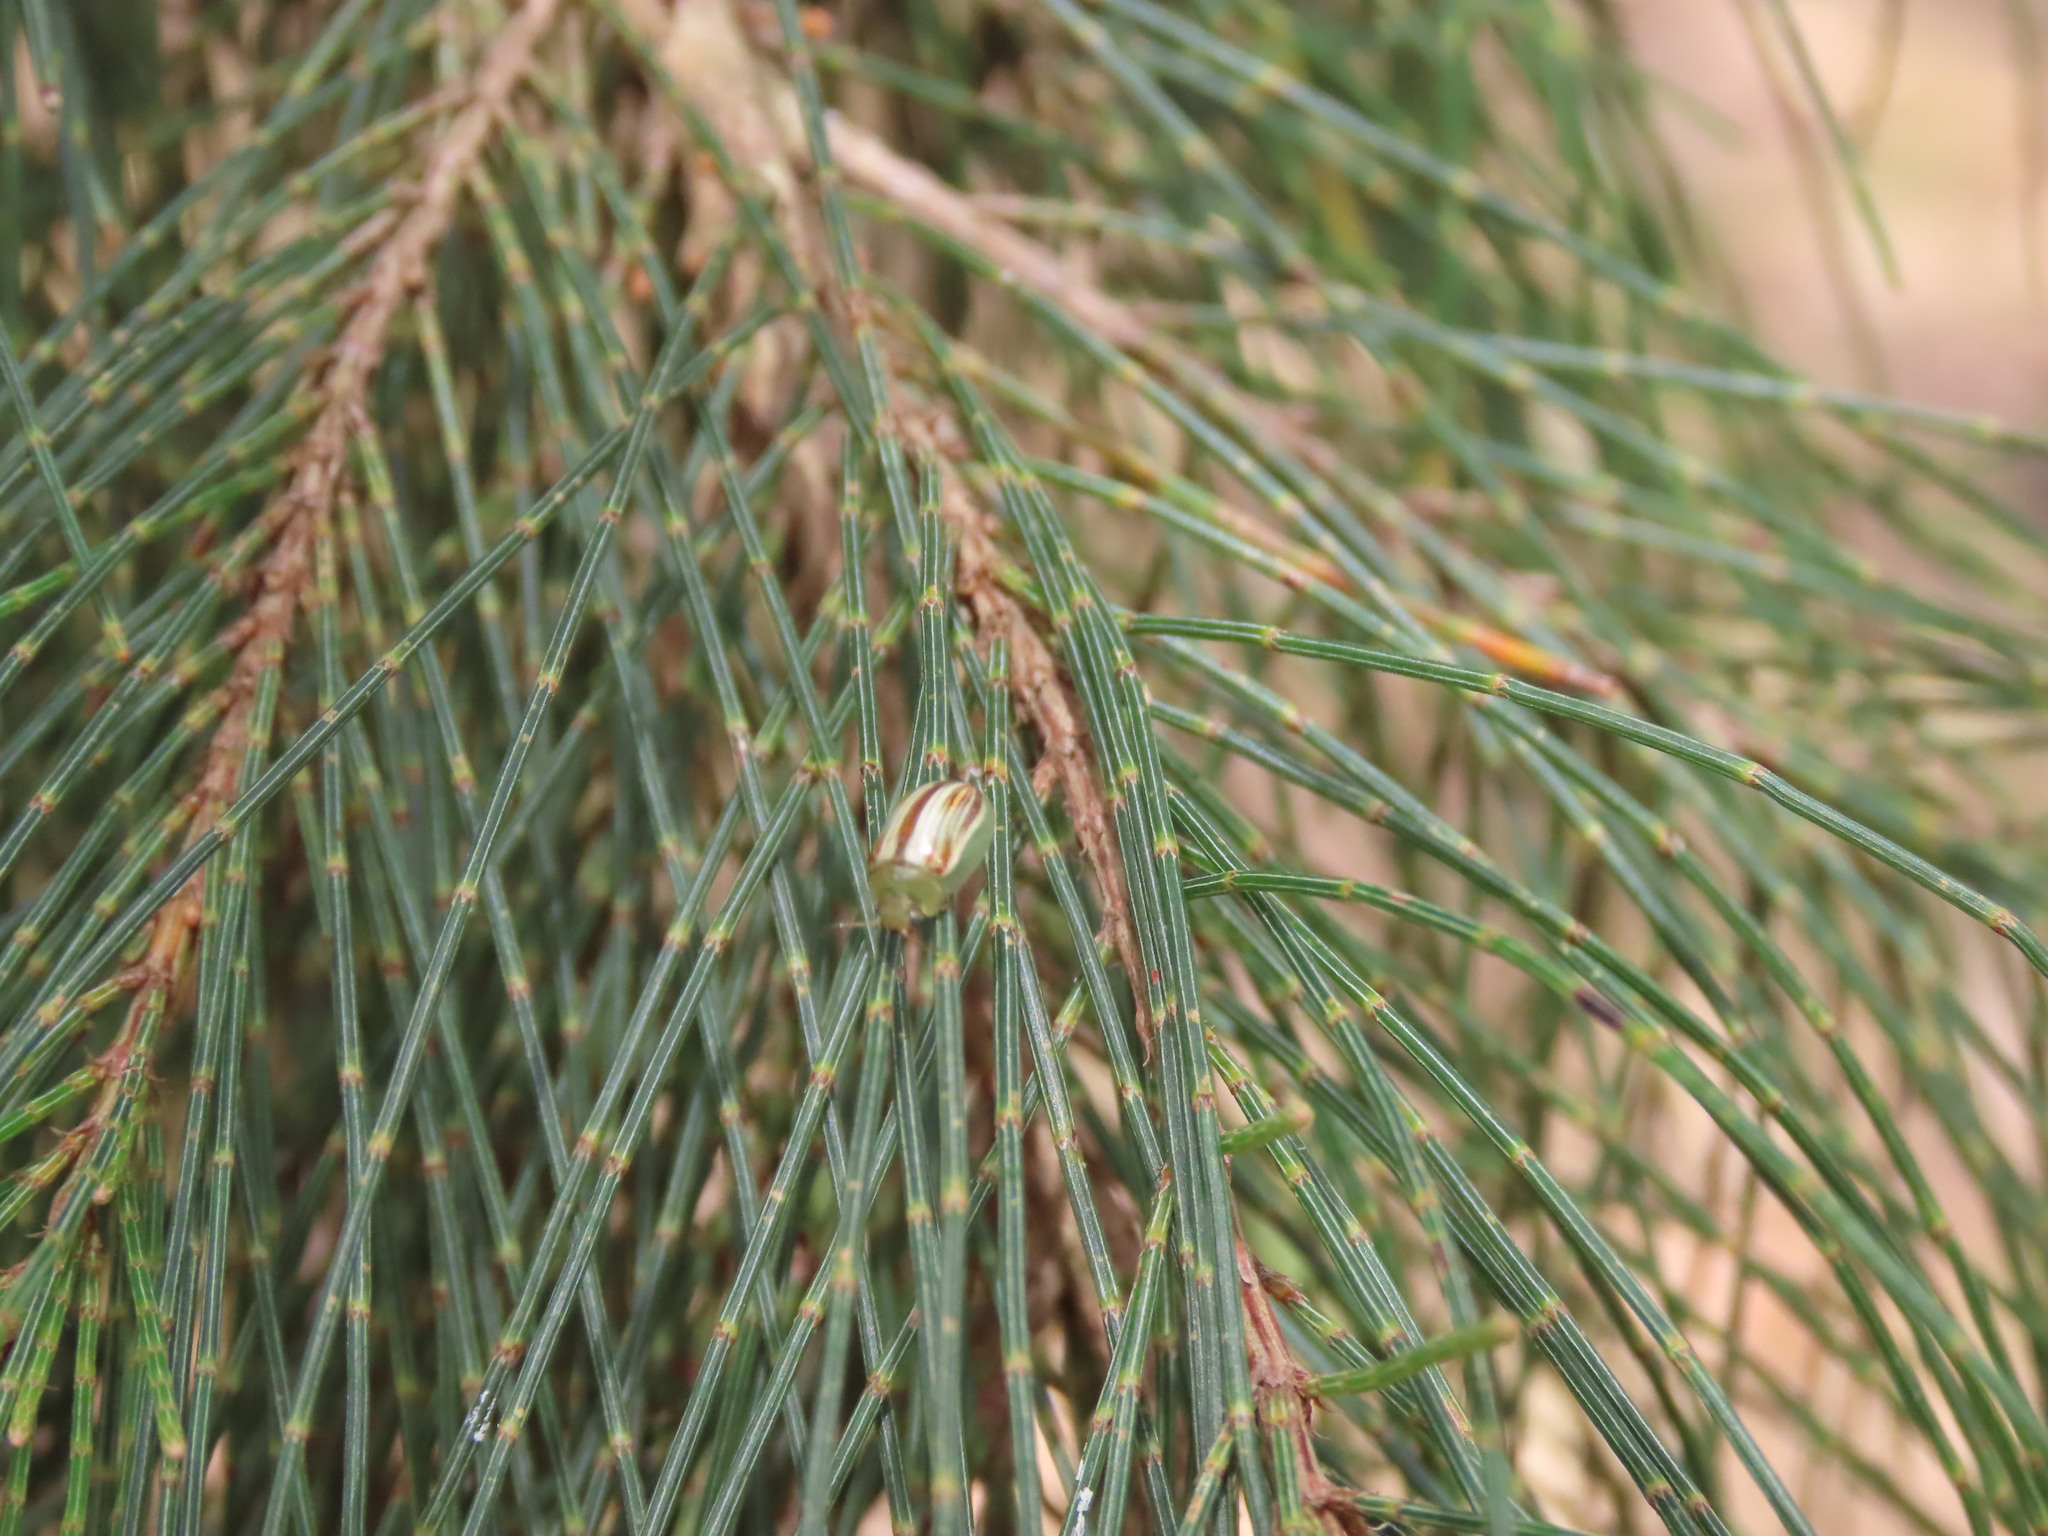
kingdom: Animalia
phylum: Arthropoda
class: Insecta
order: Coleoptera
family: Chrysomelidae
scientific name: Chrysomelidae
